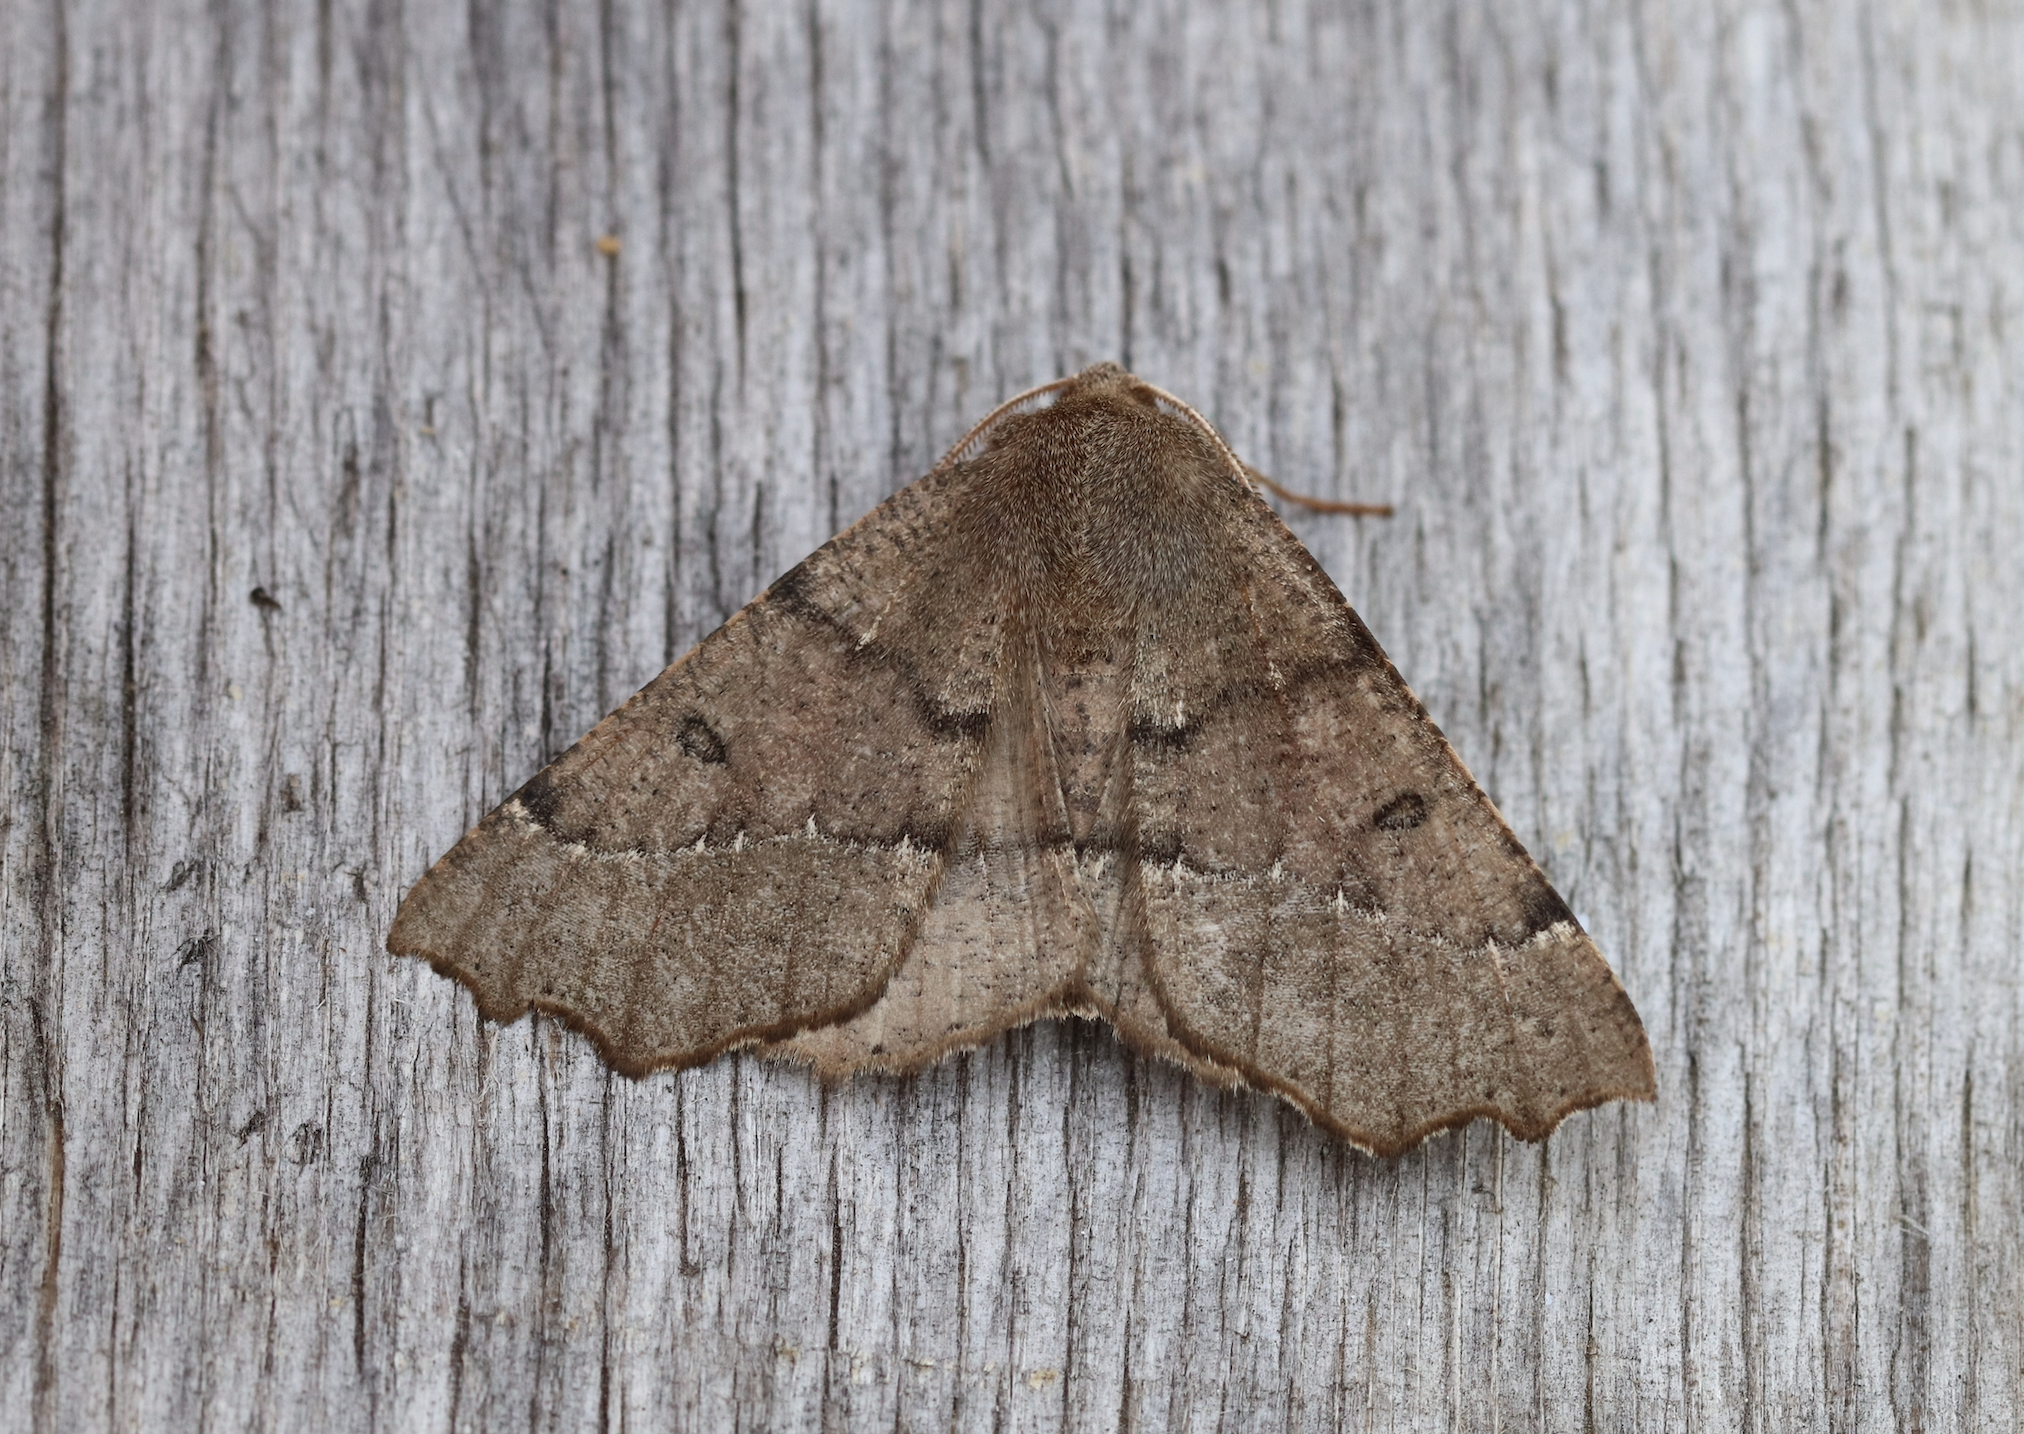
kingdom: Animalia
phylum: Arthropoda
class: Insecta
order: Lepidoptera
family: Geometridae
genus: Odontopera
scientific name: Odontopera bidentata
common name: Scalloped hazel
